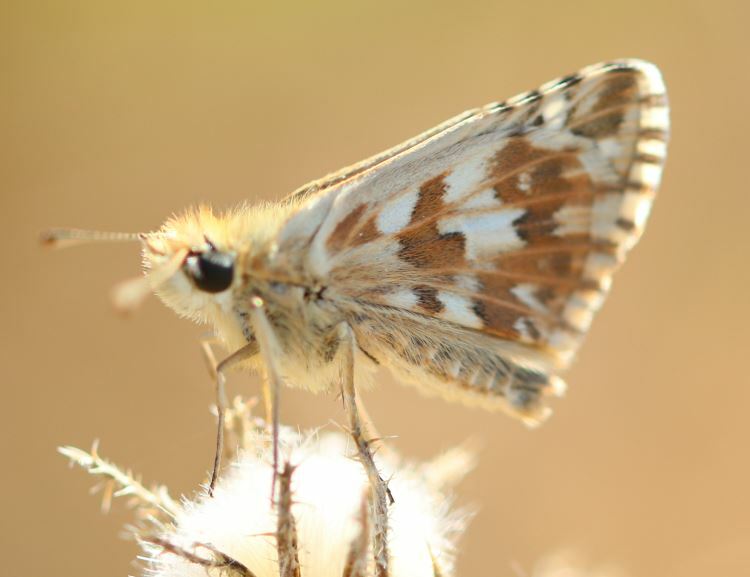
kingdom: Animalia
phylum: Arthropoda
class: Insecta
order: Lepidoptera
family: Hesperiidae
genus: Pyrgus
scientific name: Pyrgus onopordi
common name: Rosy grizzled skipper
